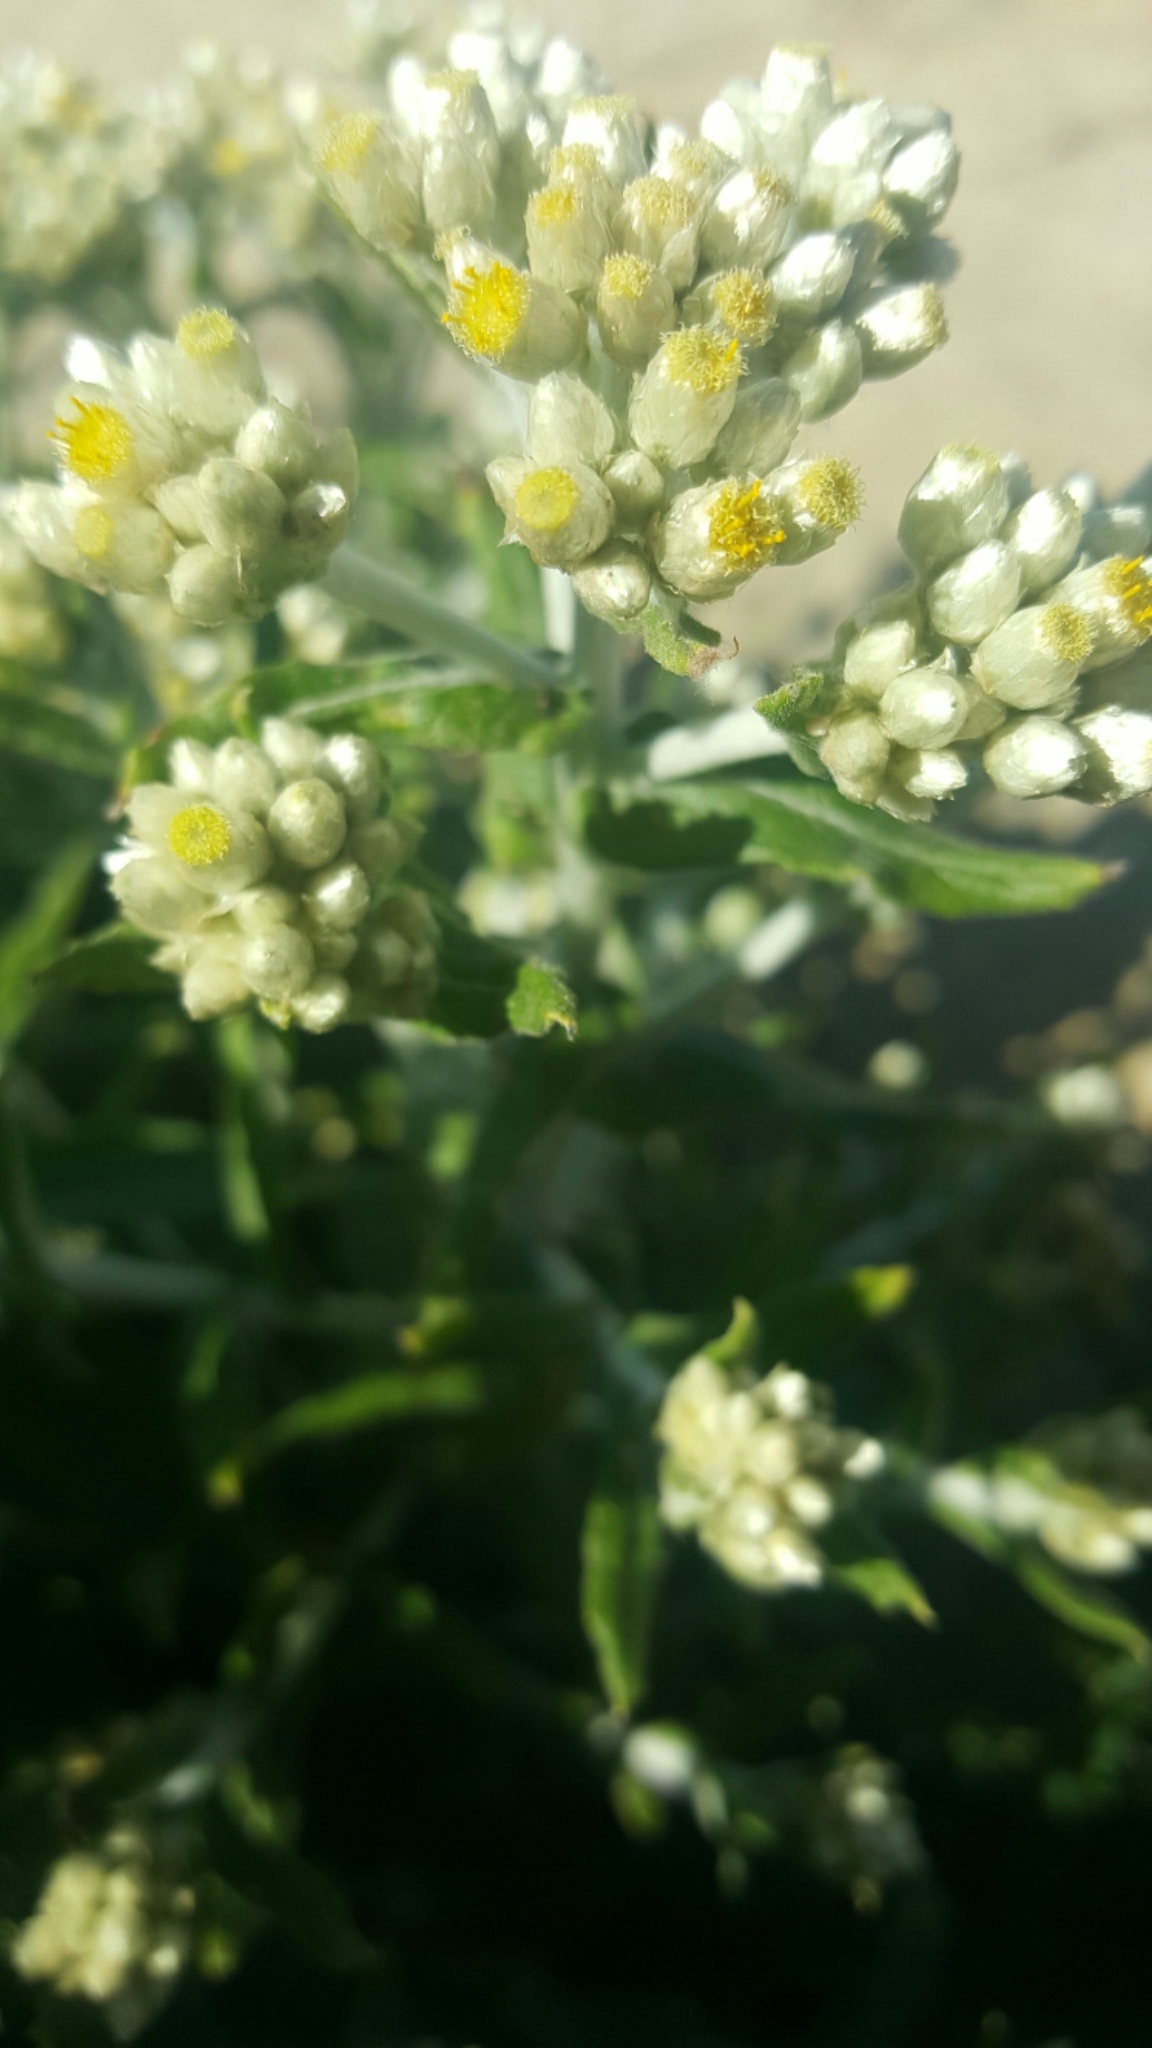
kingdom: Plantae
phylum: Tracheophyta
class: Magnoliopsida
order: Asterales
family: Asteraceae
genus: Pseudognaphalium
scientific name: Pseudognaphalium biolettii
